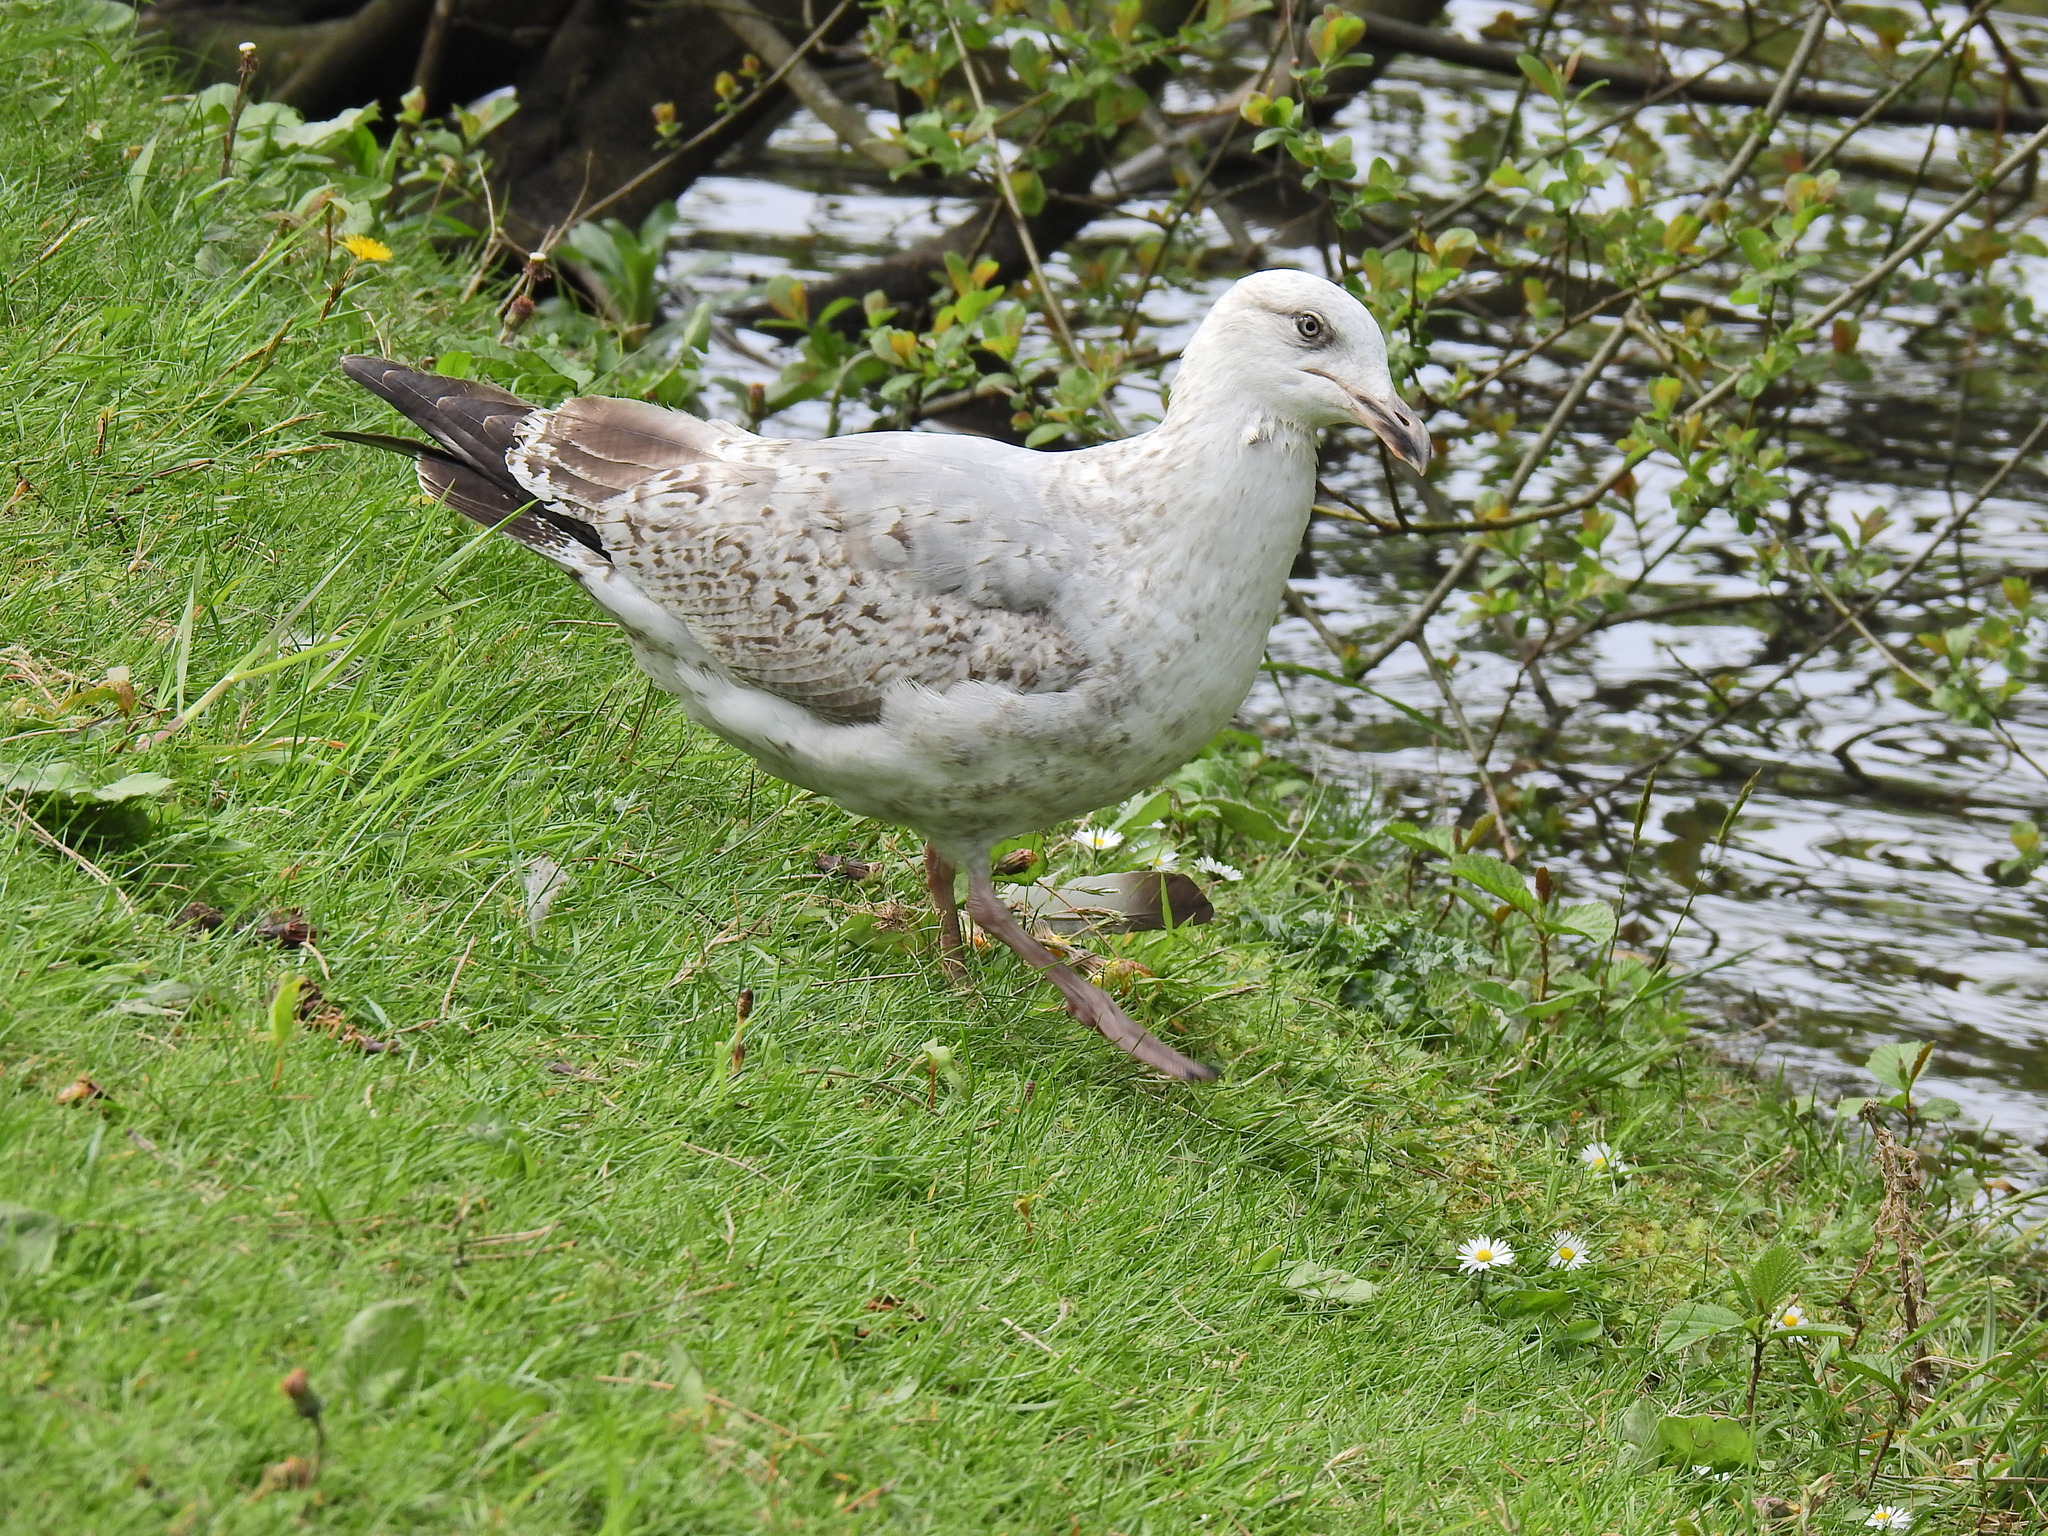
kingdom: Animalia
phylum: Chordata
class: Aves
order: Charadriiformes
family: Laridae
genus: Larus
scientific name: Larus argentatus
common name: Herring gull
